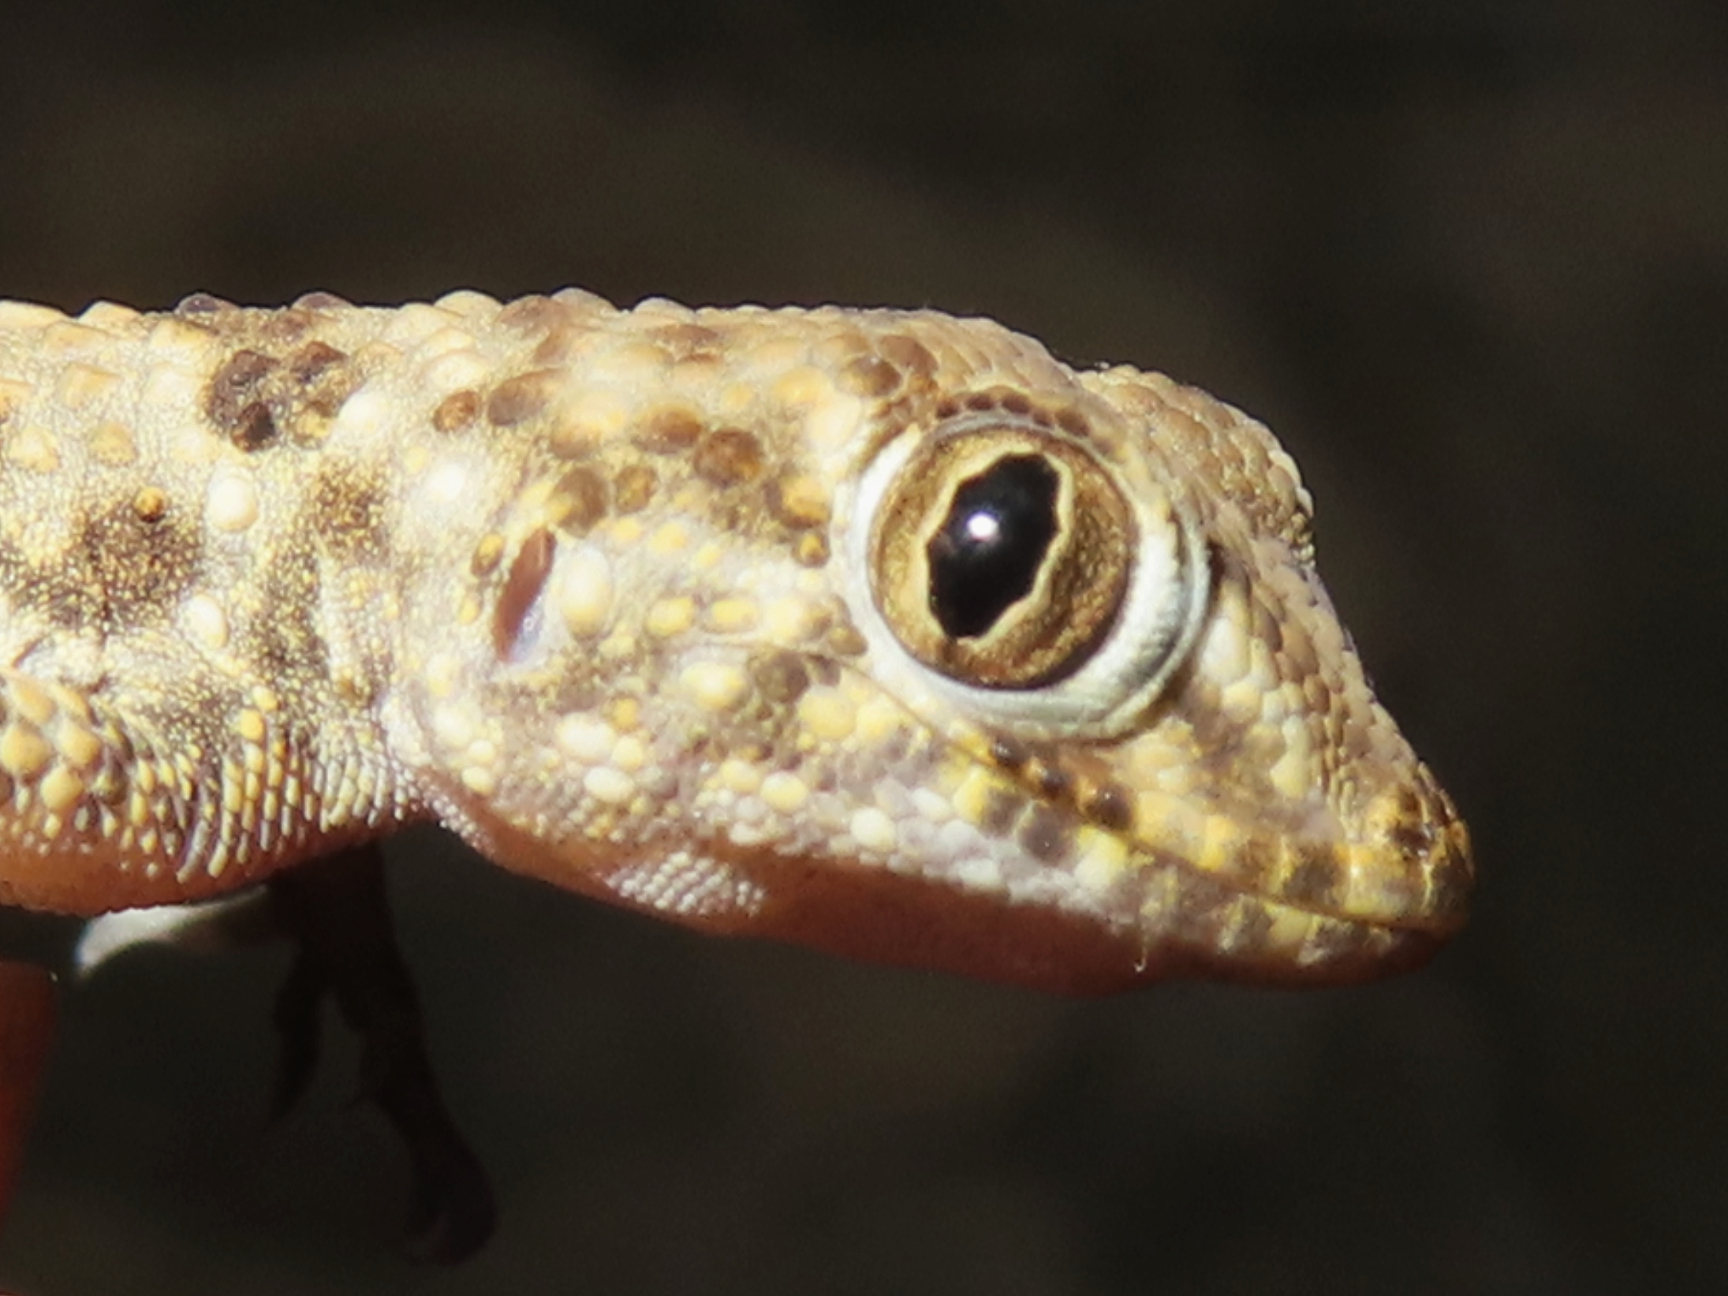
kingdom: Animalia
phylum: Chordata
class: Squamata
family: Gekkonidae
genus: Tenuidactylus
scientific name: Tenuidactylus caspius
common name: Caspian bent-toed gecko
